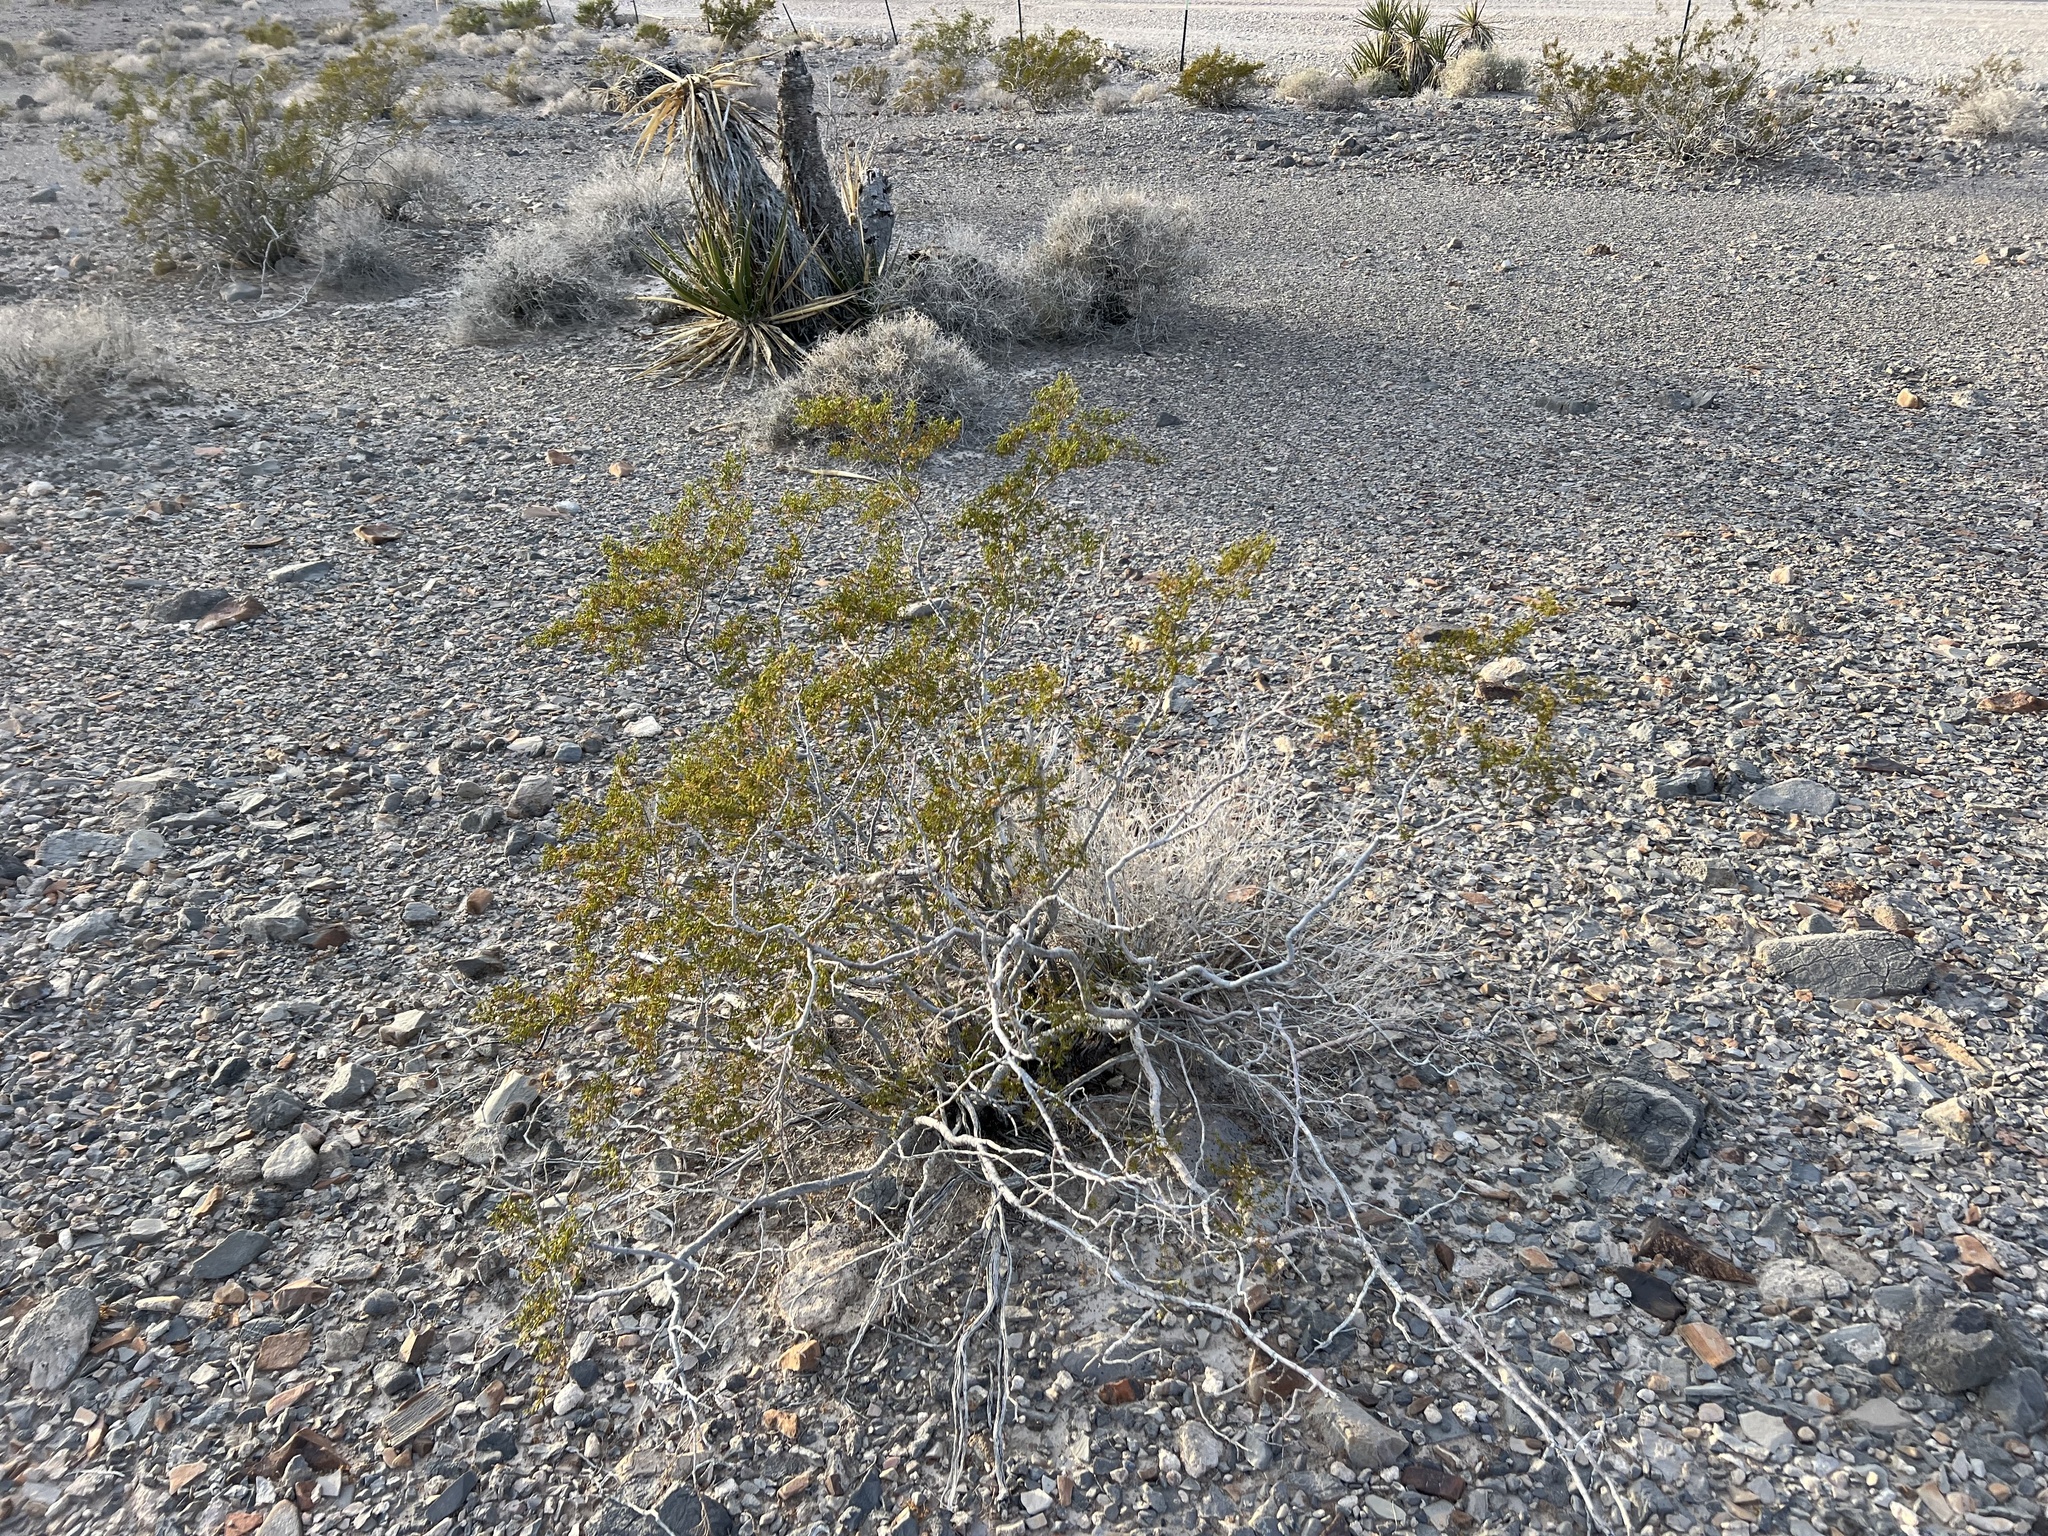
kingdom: Plantae
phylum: Tracheophyta
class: Magnoliopsida
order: Zygophyllales
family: Zygophyllaceae
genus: Larrea
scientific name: Larrea tridentata
